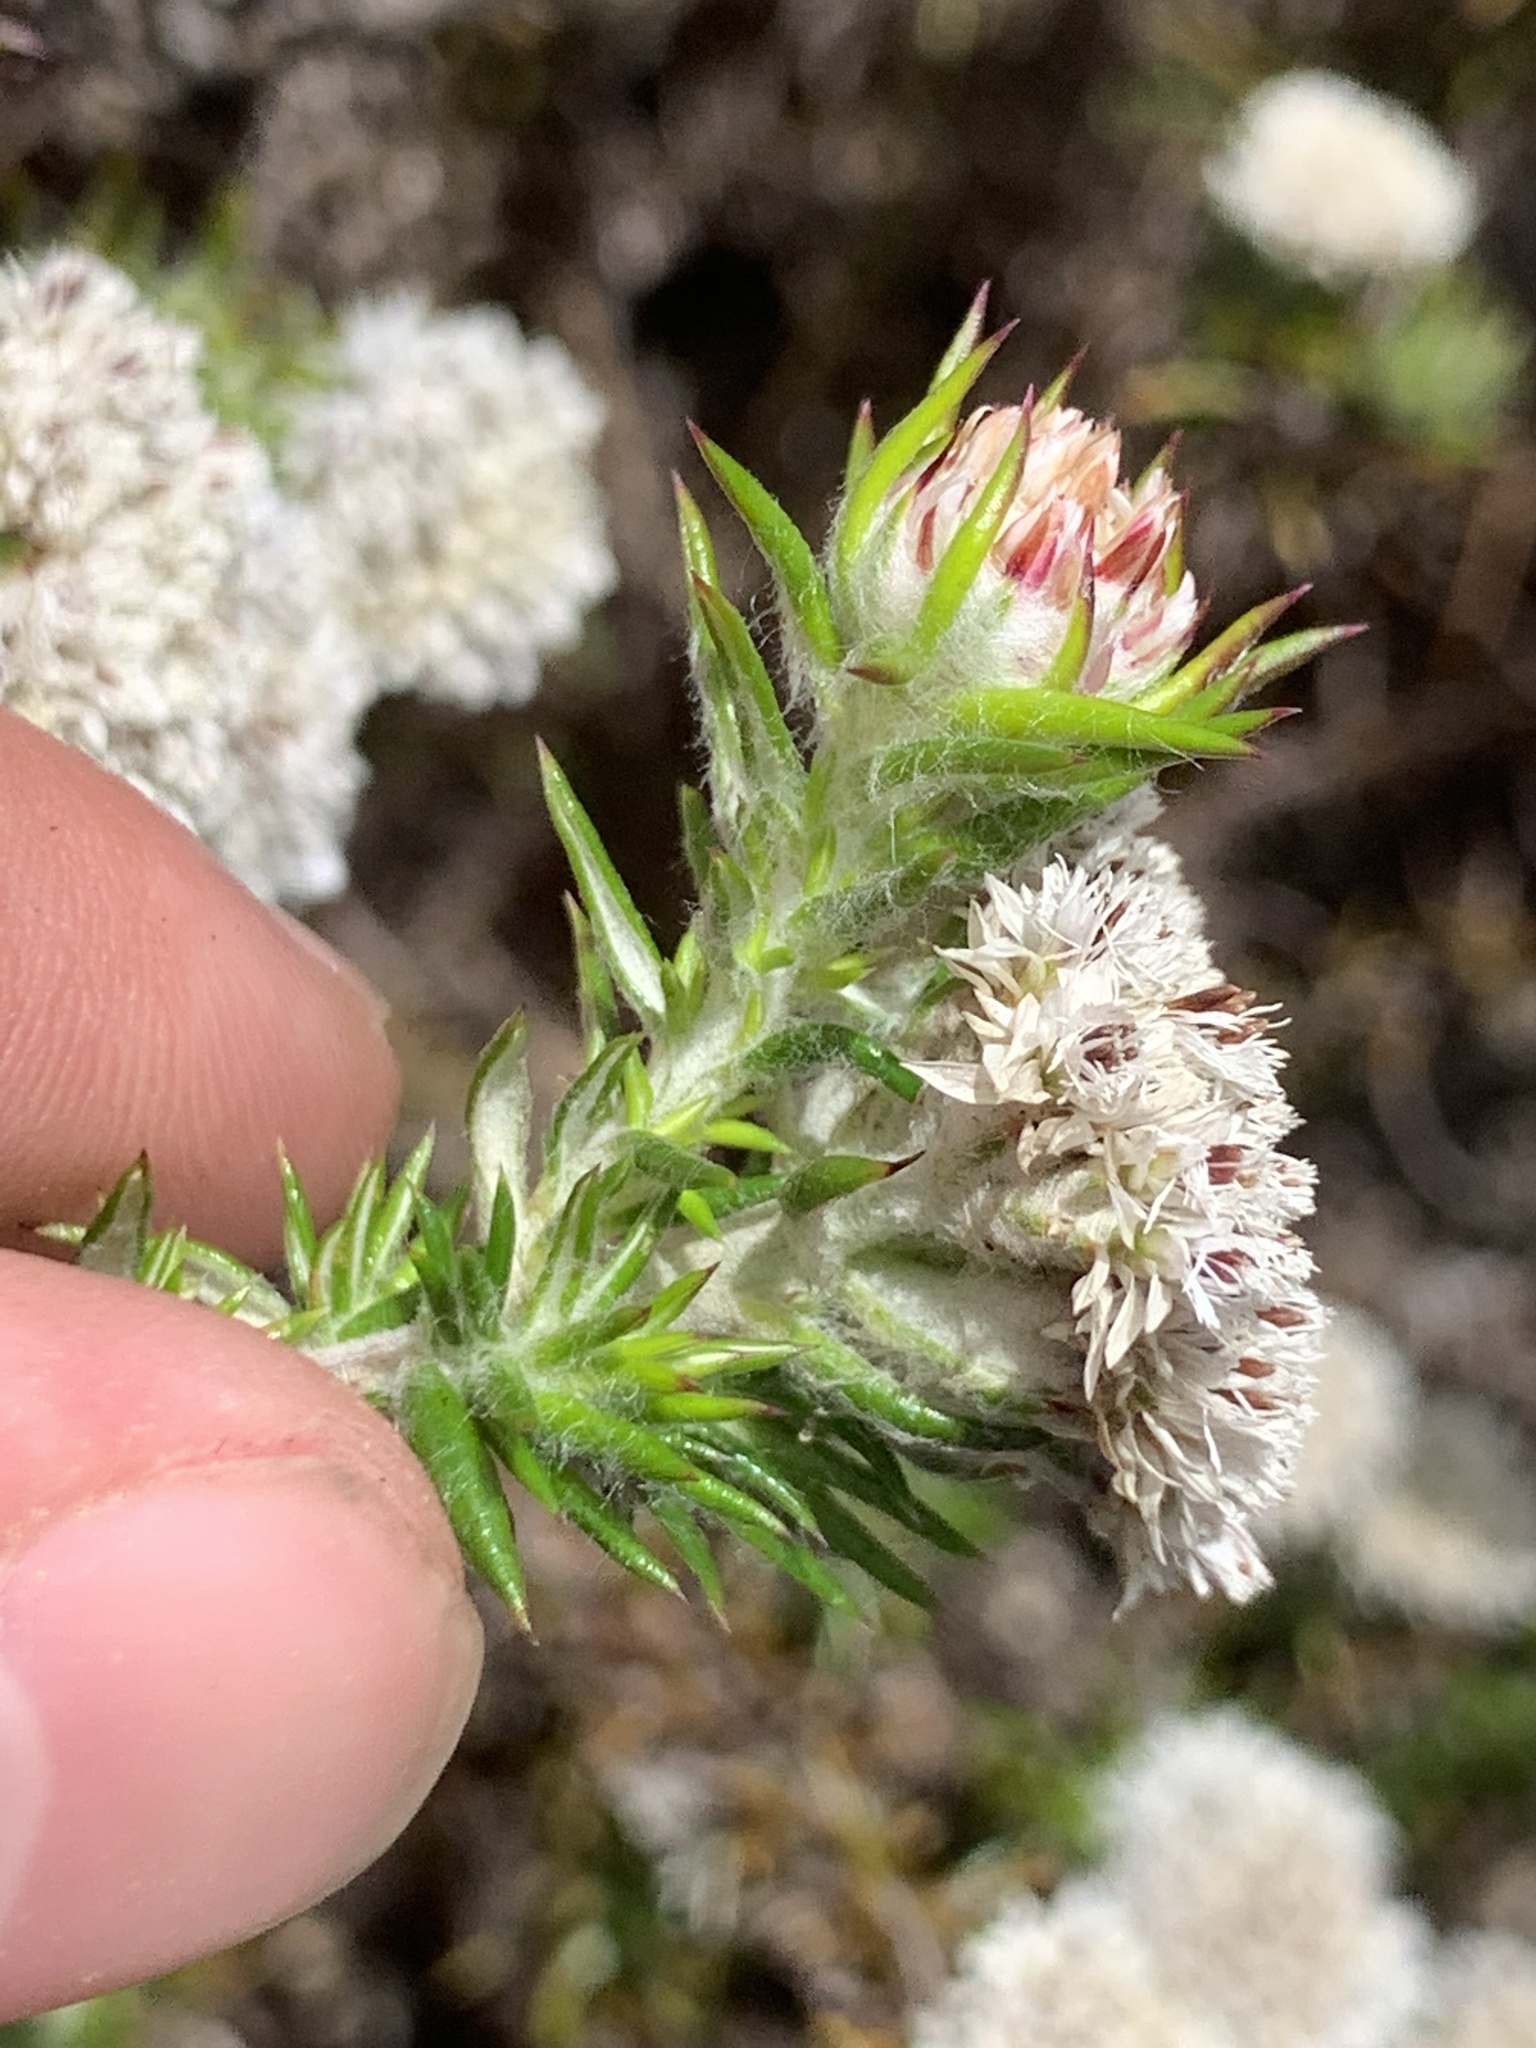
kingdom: Plantae
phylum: Tracheophyta
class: Magnoliopsida
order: Asterales
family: Asteraceae
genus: Metalasia
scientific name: Metalasia pulchella
